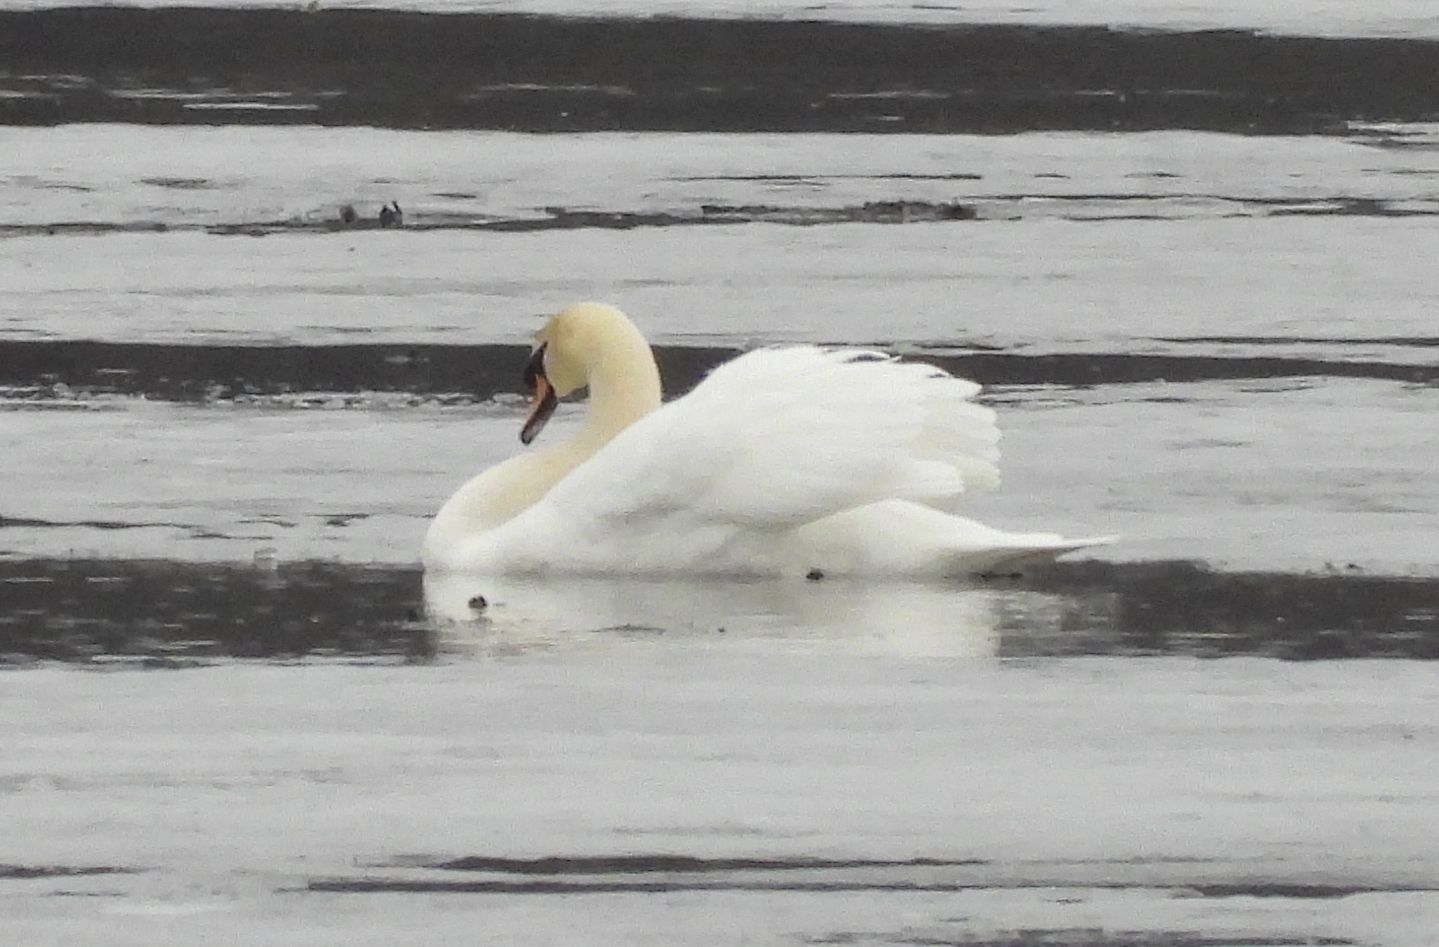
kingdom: Animalia
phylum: Chordata
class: Aves
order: Anseriformes
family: Anatidae
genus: Cygnus
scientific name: Cygnus olor
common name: Mute swan
